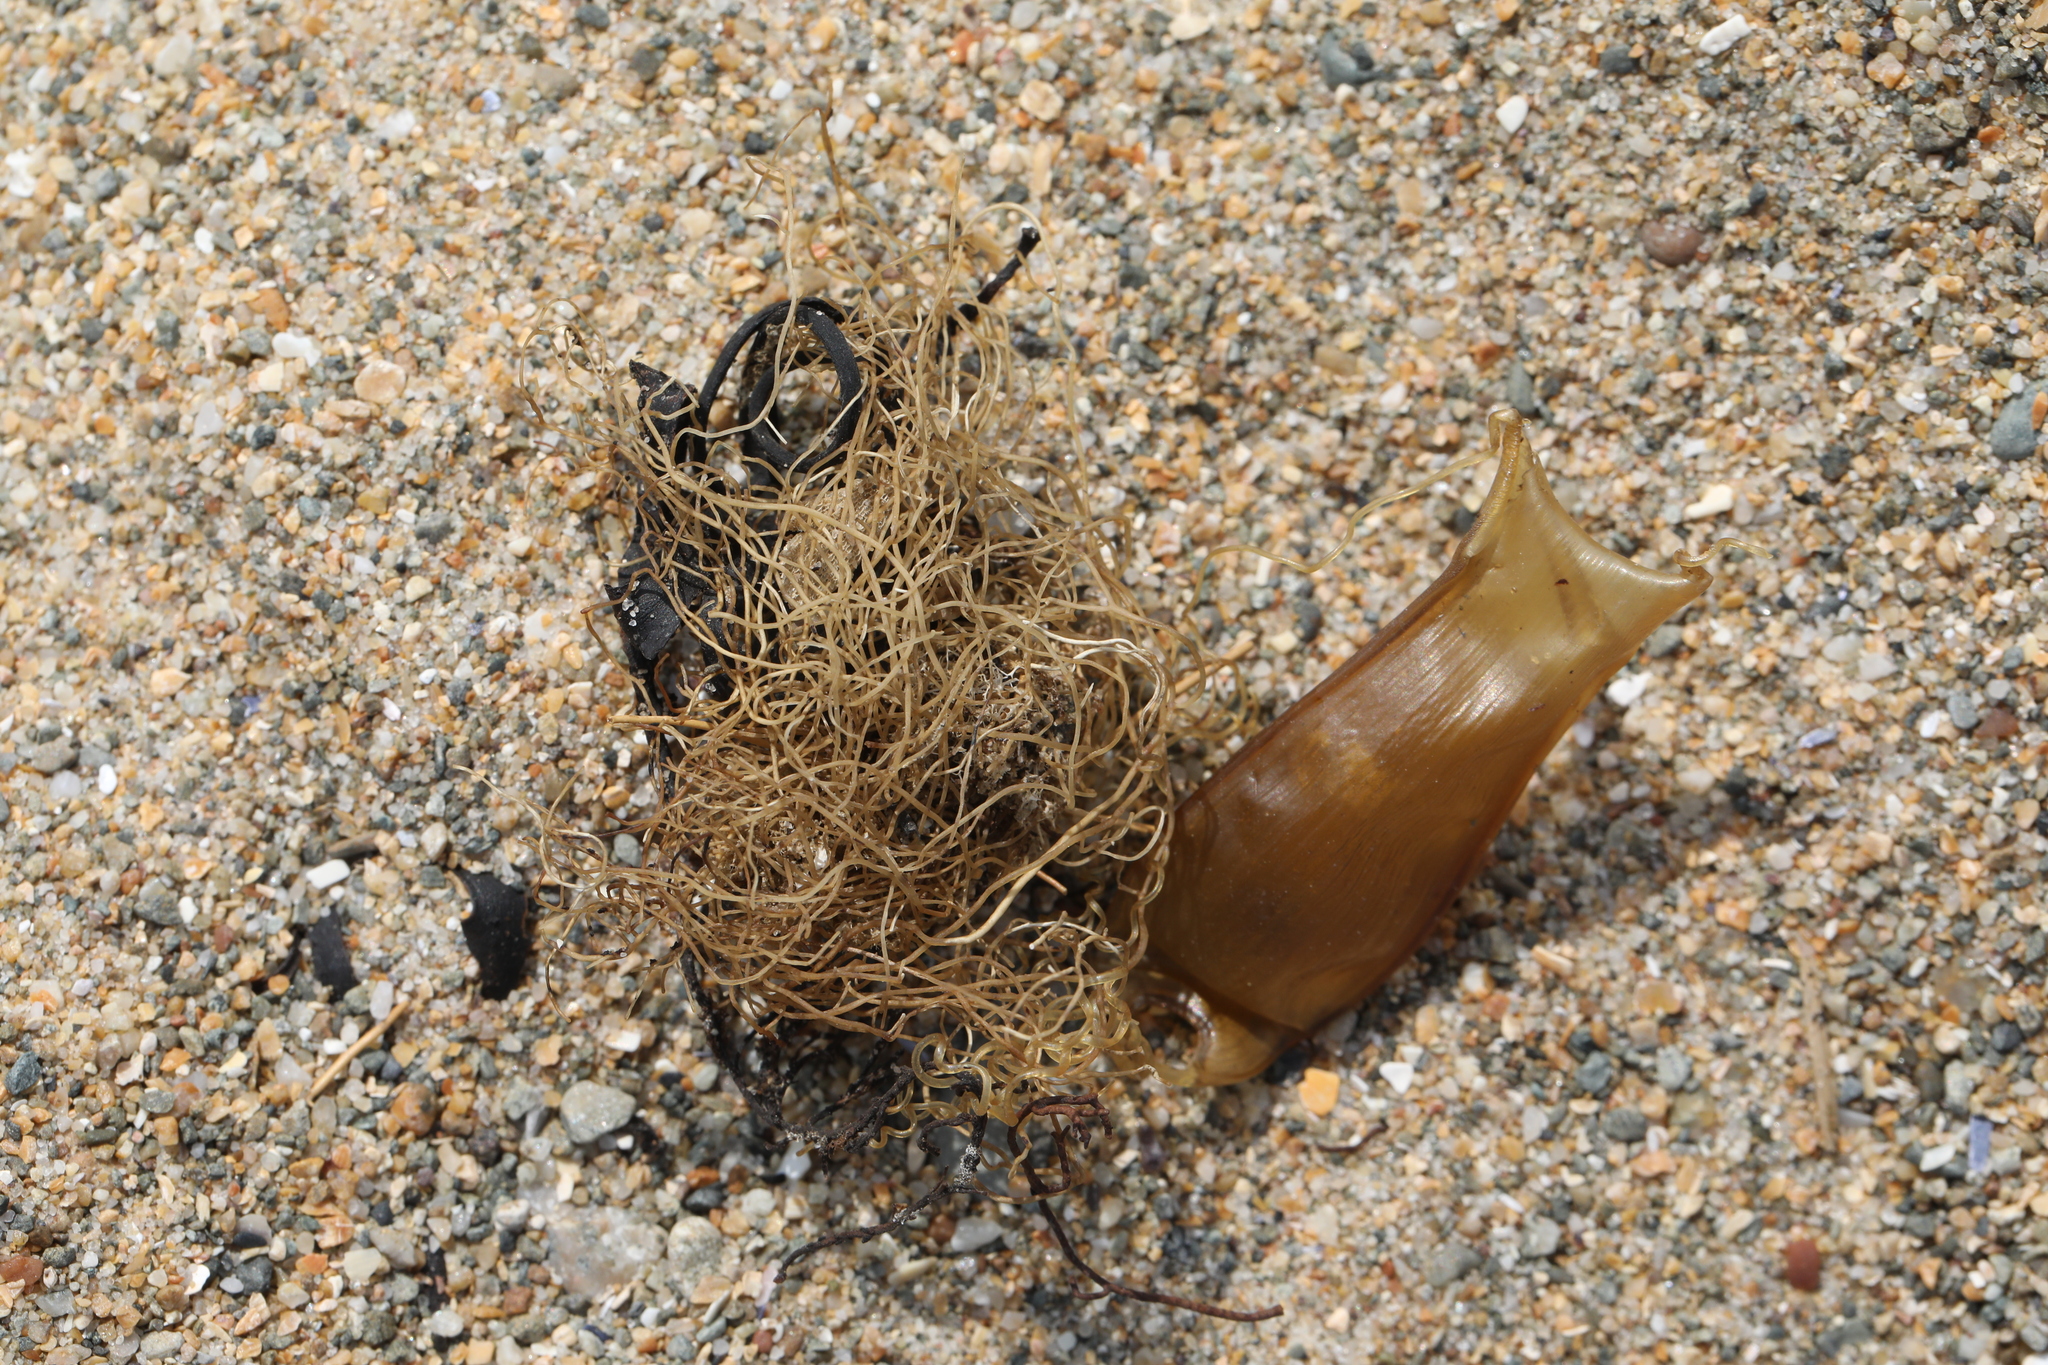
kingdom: Animalia
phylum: Chordata
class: Elasmobranchii
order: Carcharhiniformes
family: Scyliorhinidae
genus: Scyliorhinus
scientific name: Scyliorhinus canicula
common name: Lesser spotted dogfish
